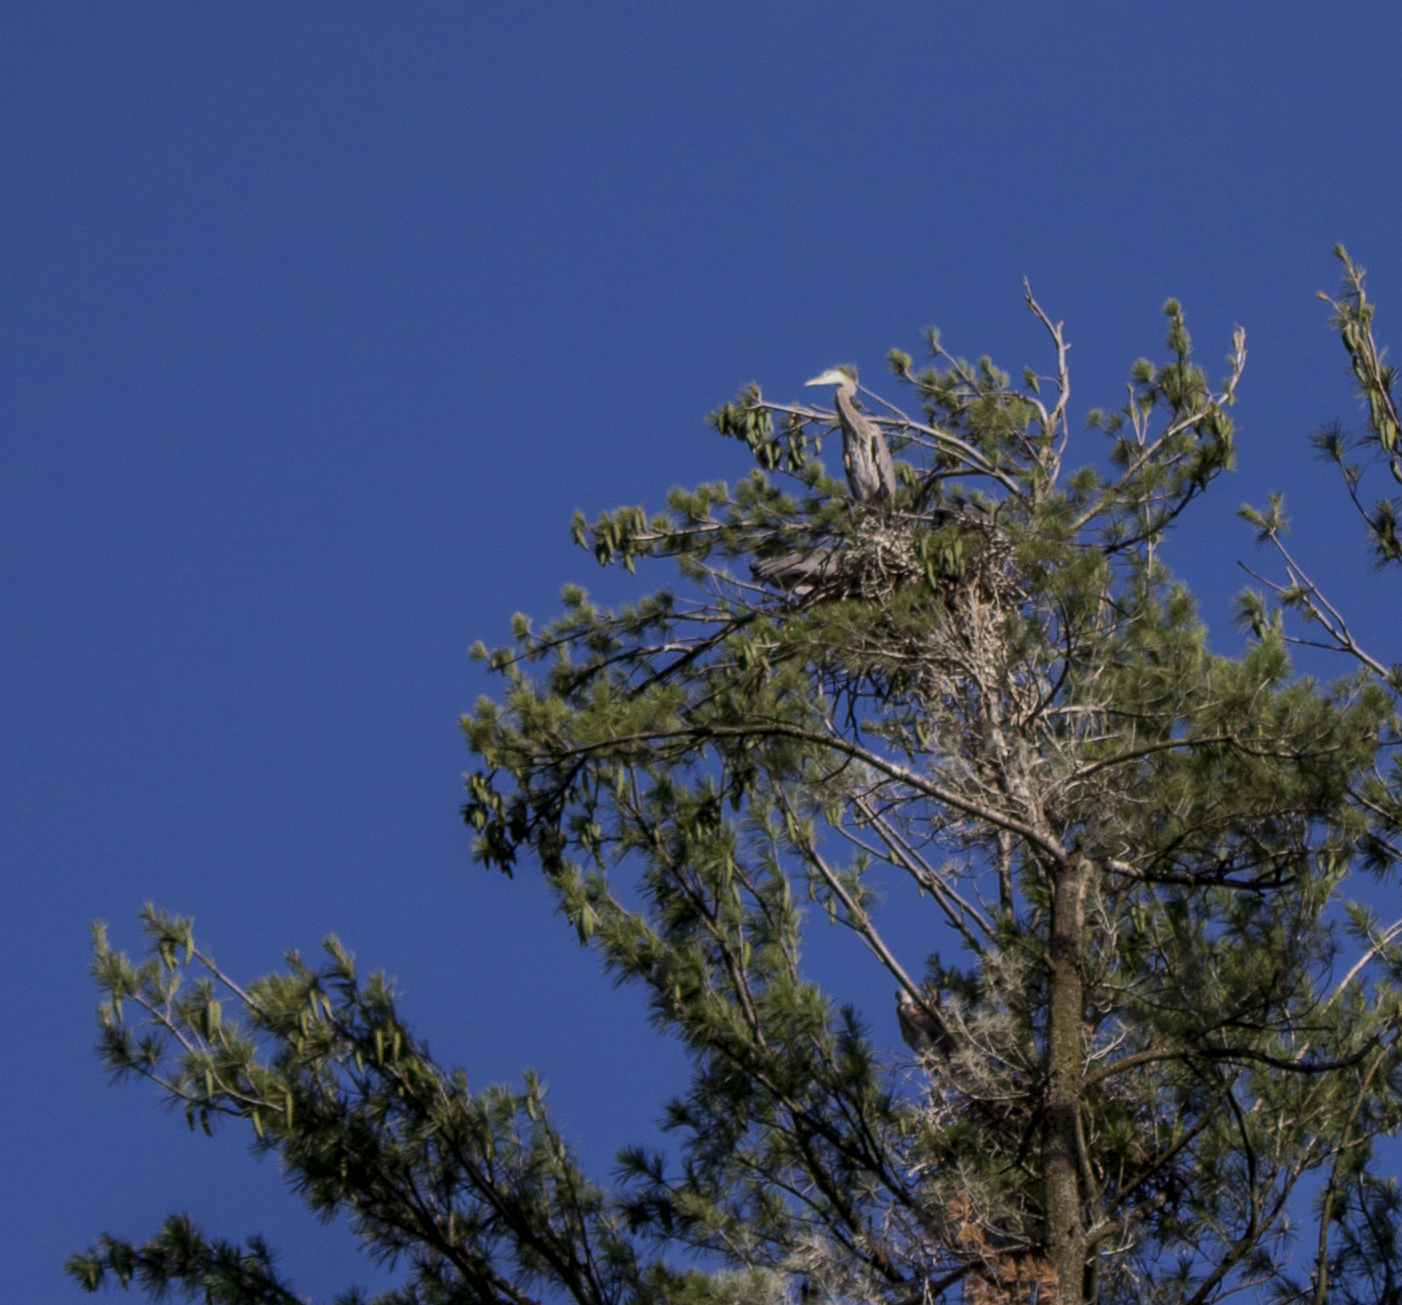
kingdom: Animalia
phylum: Chordata
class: Aves
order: Pelecaniformes
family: Ardeidae
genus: Ardea
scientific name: Ardea herodias
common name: Great blue heron
